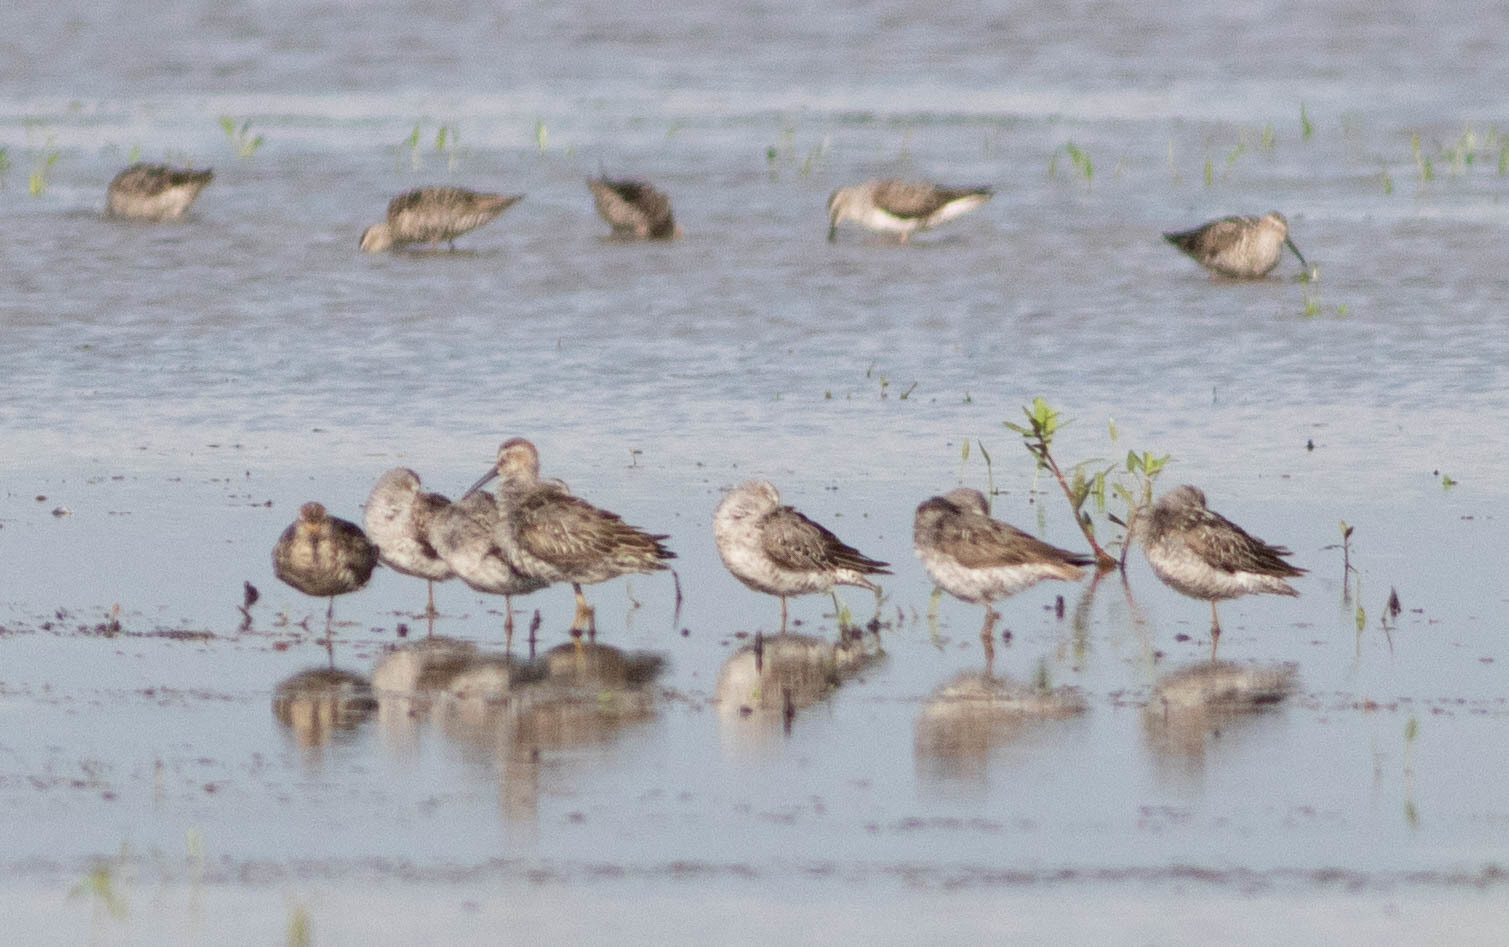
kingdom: Animalia
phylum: Chordata
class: Aves
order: Charadriiformes
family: Scolopacidae
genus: Calidris
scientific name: Calidris himantopus
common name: Stilt sandpiper
